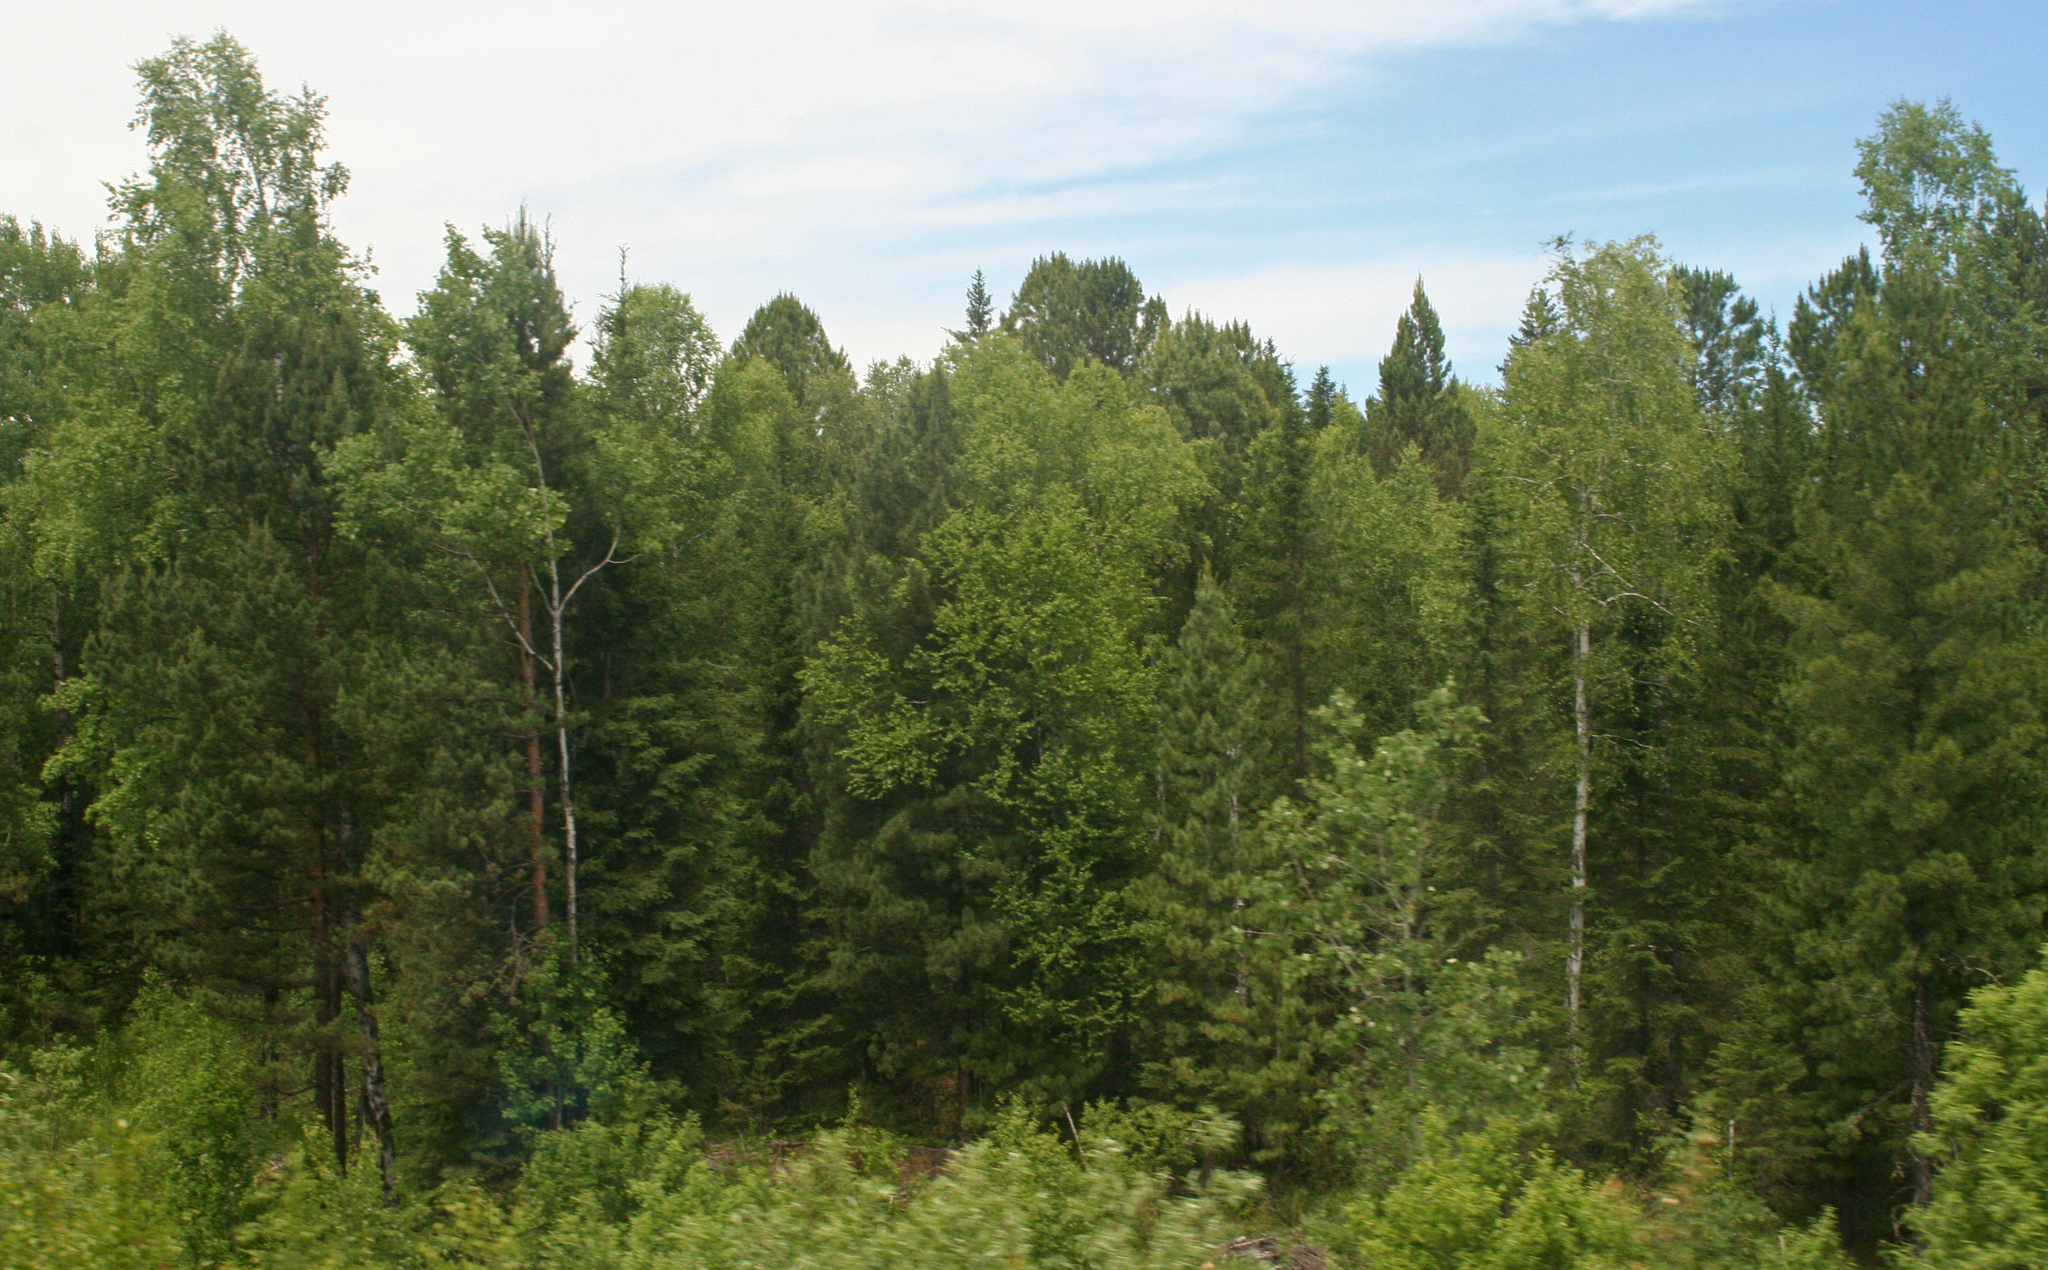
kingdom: Plantae
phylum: Tracheophyta
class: Pinopsida
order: Pinales
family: Pinaceae
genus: Pinus
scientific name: Pinus sibirica
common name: Siberian pine
